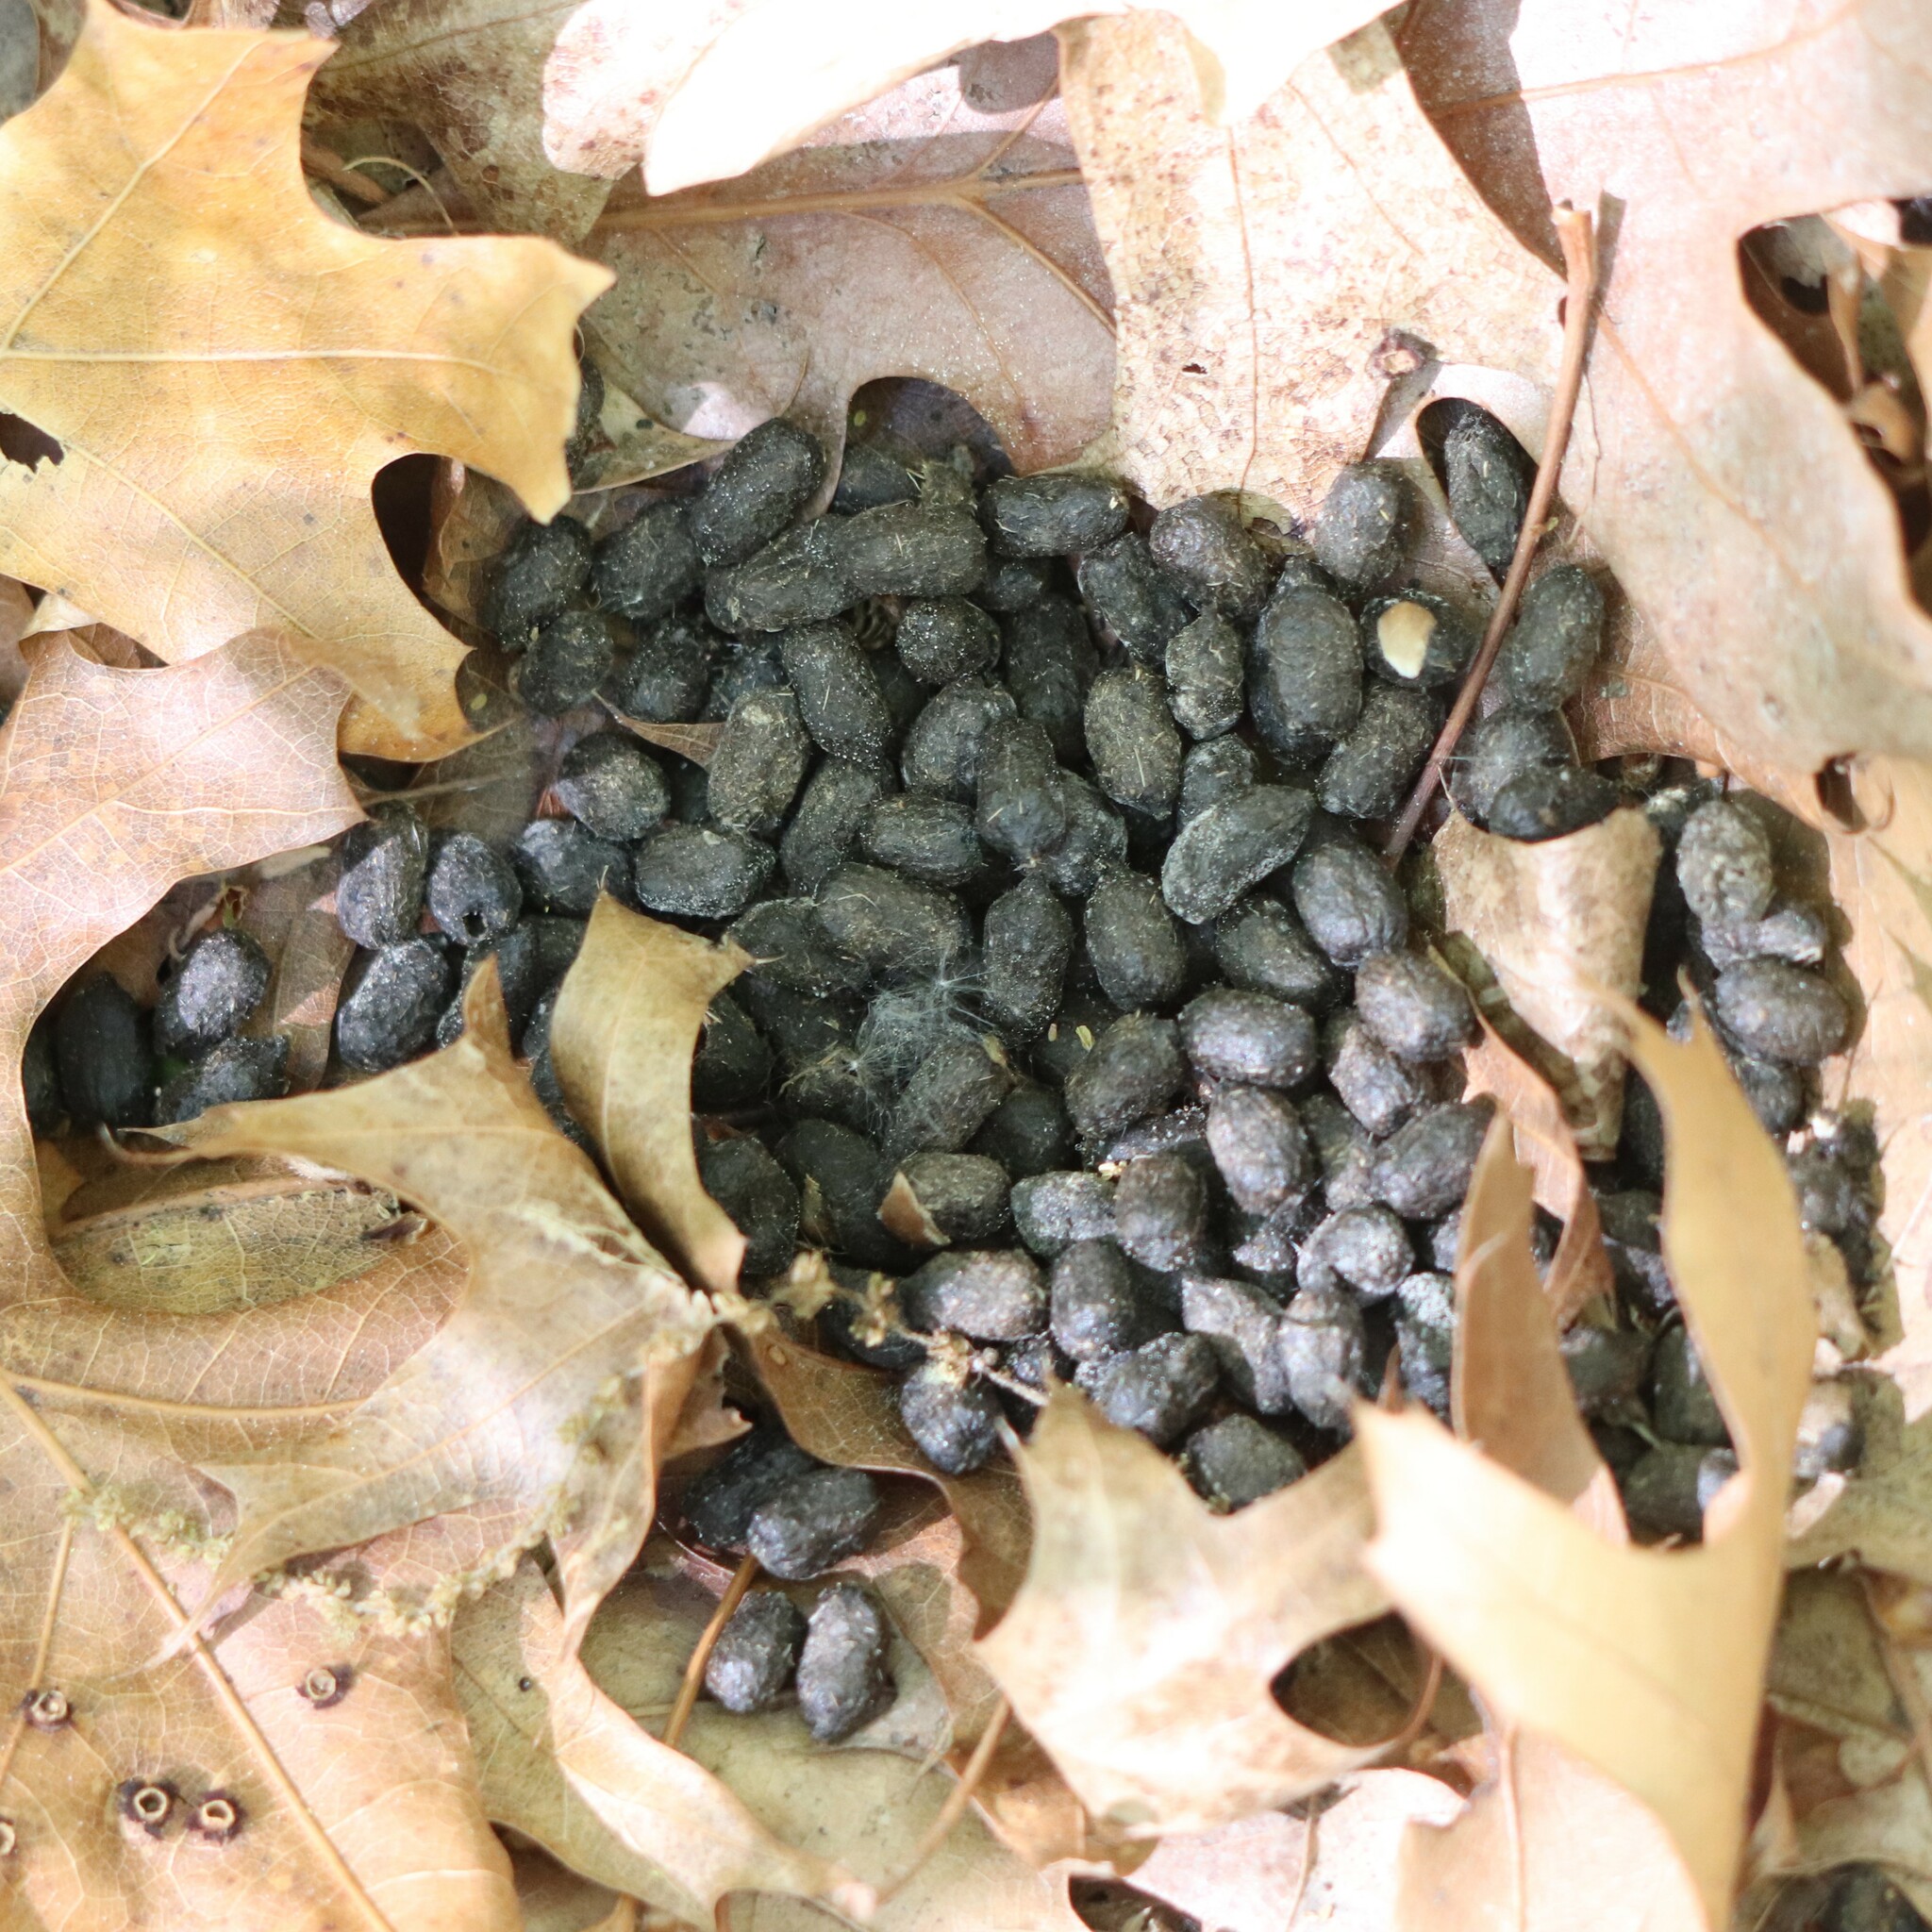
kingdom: Animalia
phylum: Chordata
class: Mammalia
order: Artiodactyla
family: Cervidae
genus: Odocoileus
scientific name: Odocoileus virginianus
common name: White-tailed deer
